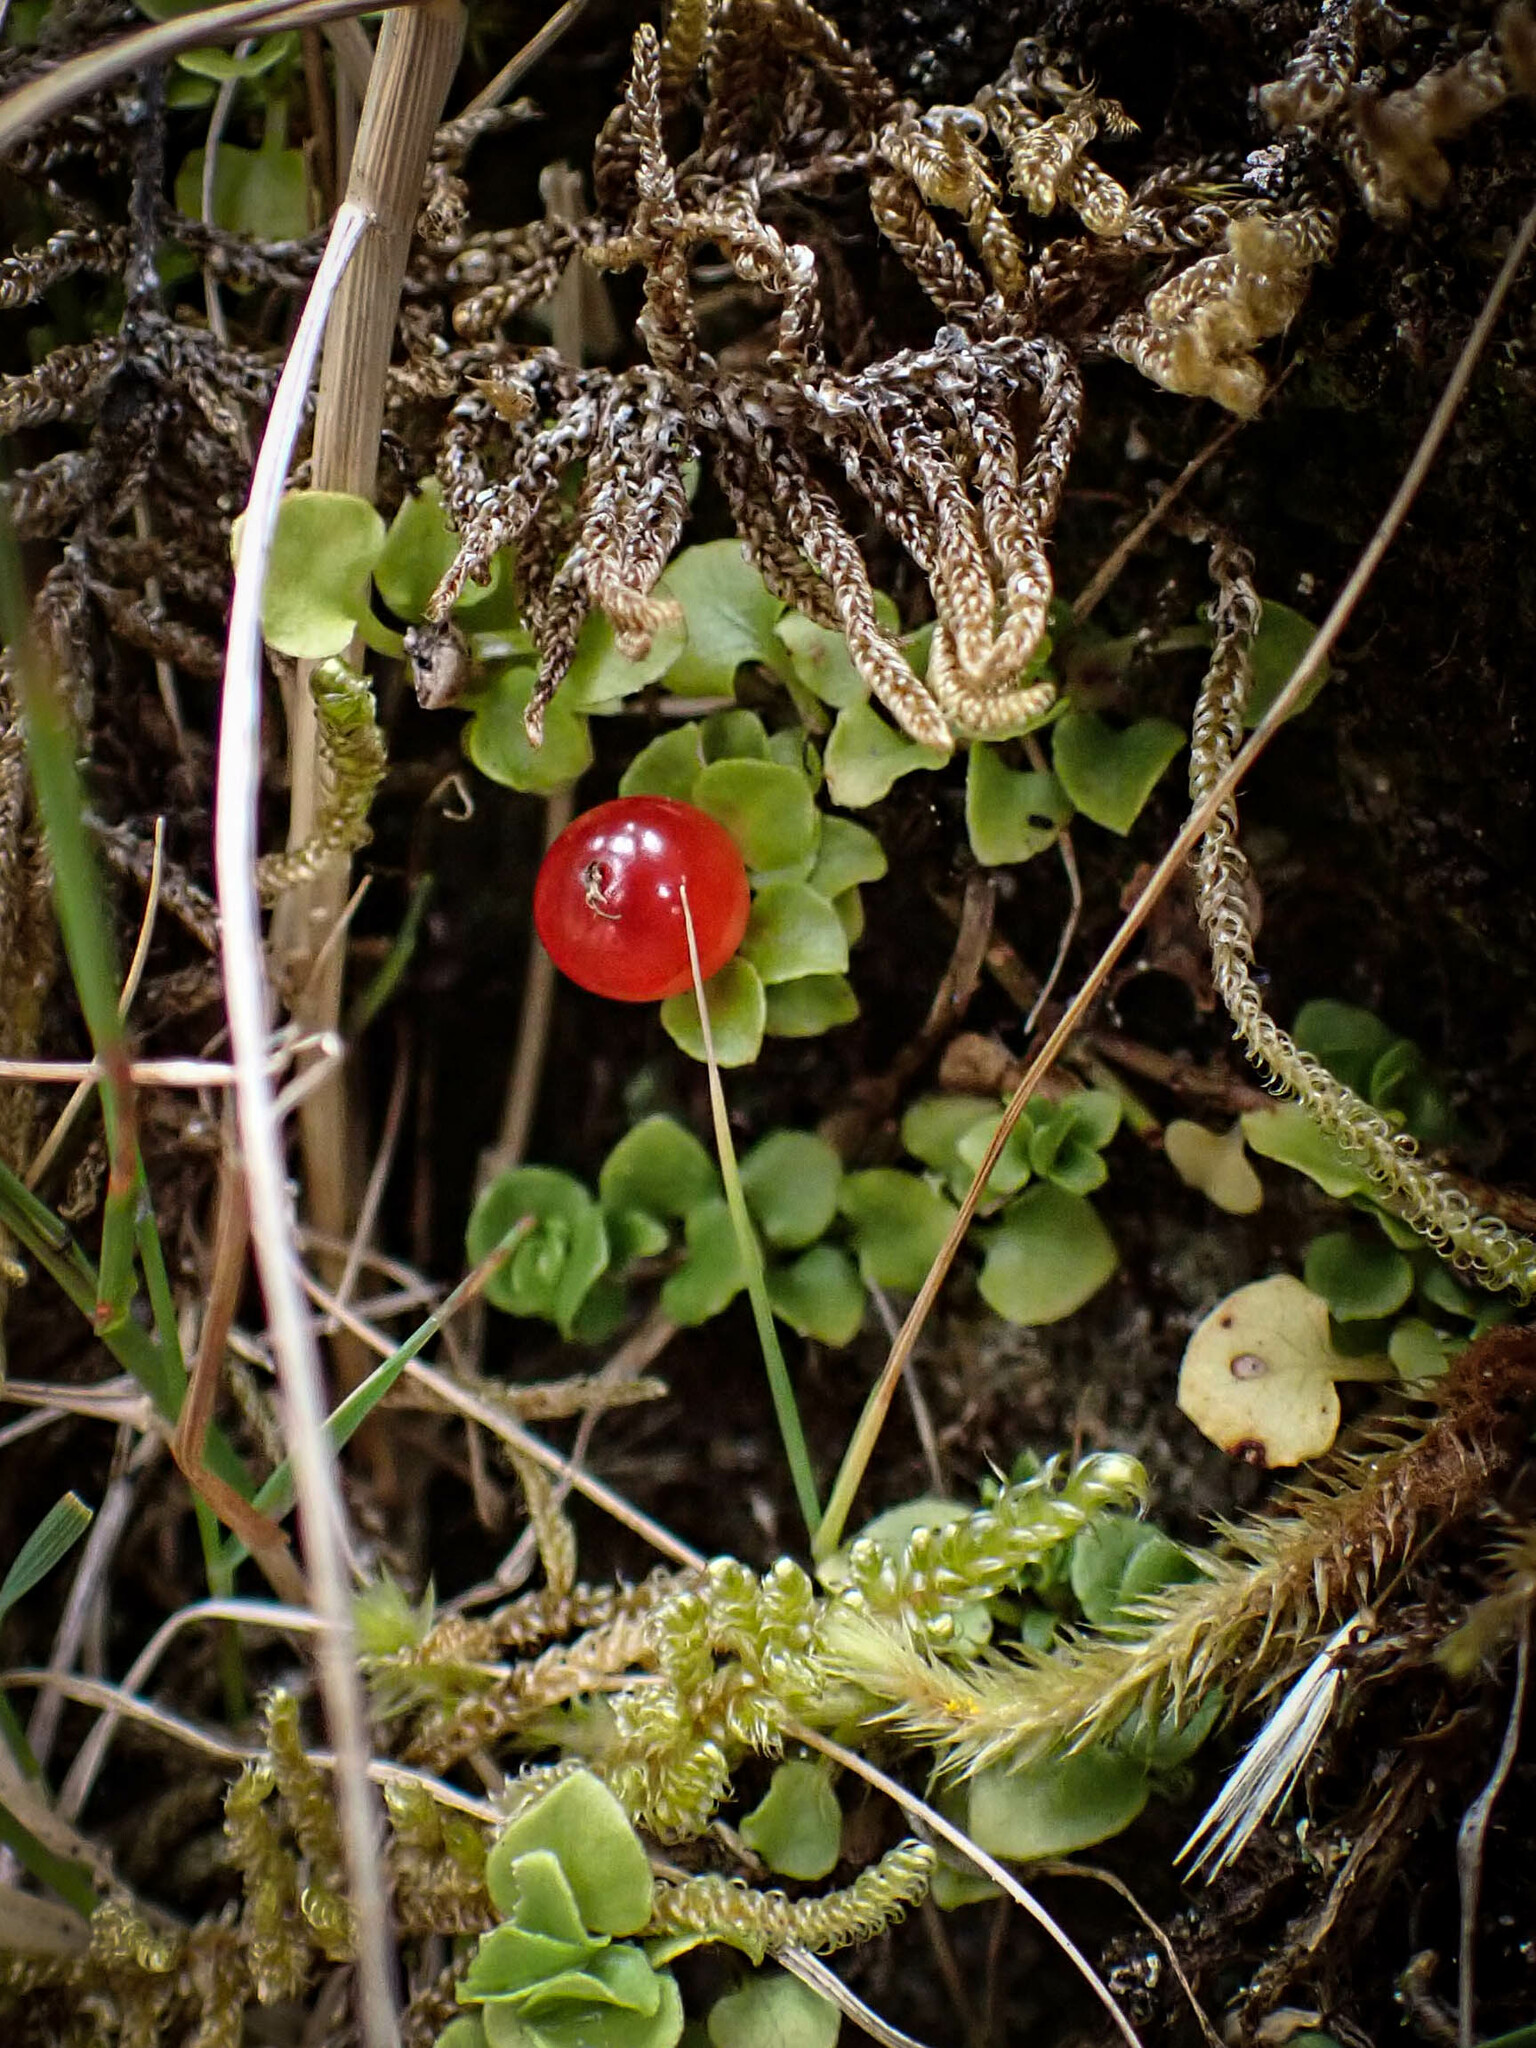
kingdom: Plantae
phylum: Tracheophyta
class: Magnoliopsida
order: Gentianales
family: Rubiaceae
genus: Nertera
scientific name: Nertera granadensis
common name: Beadplant
